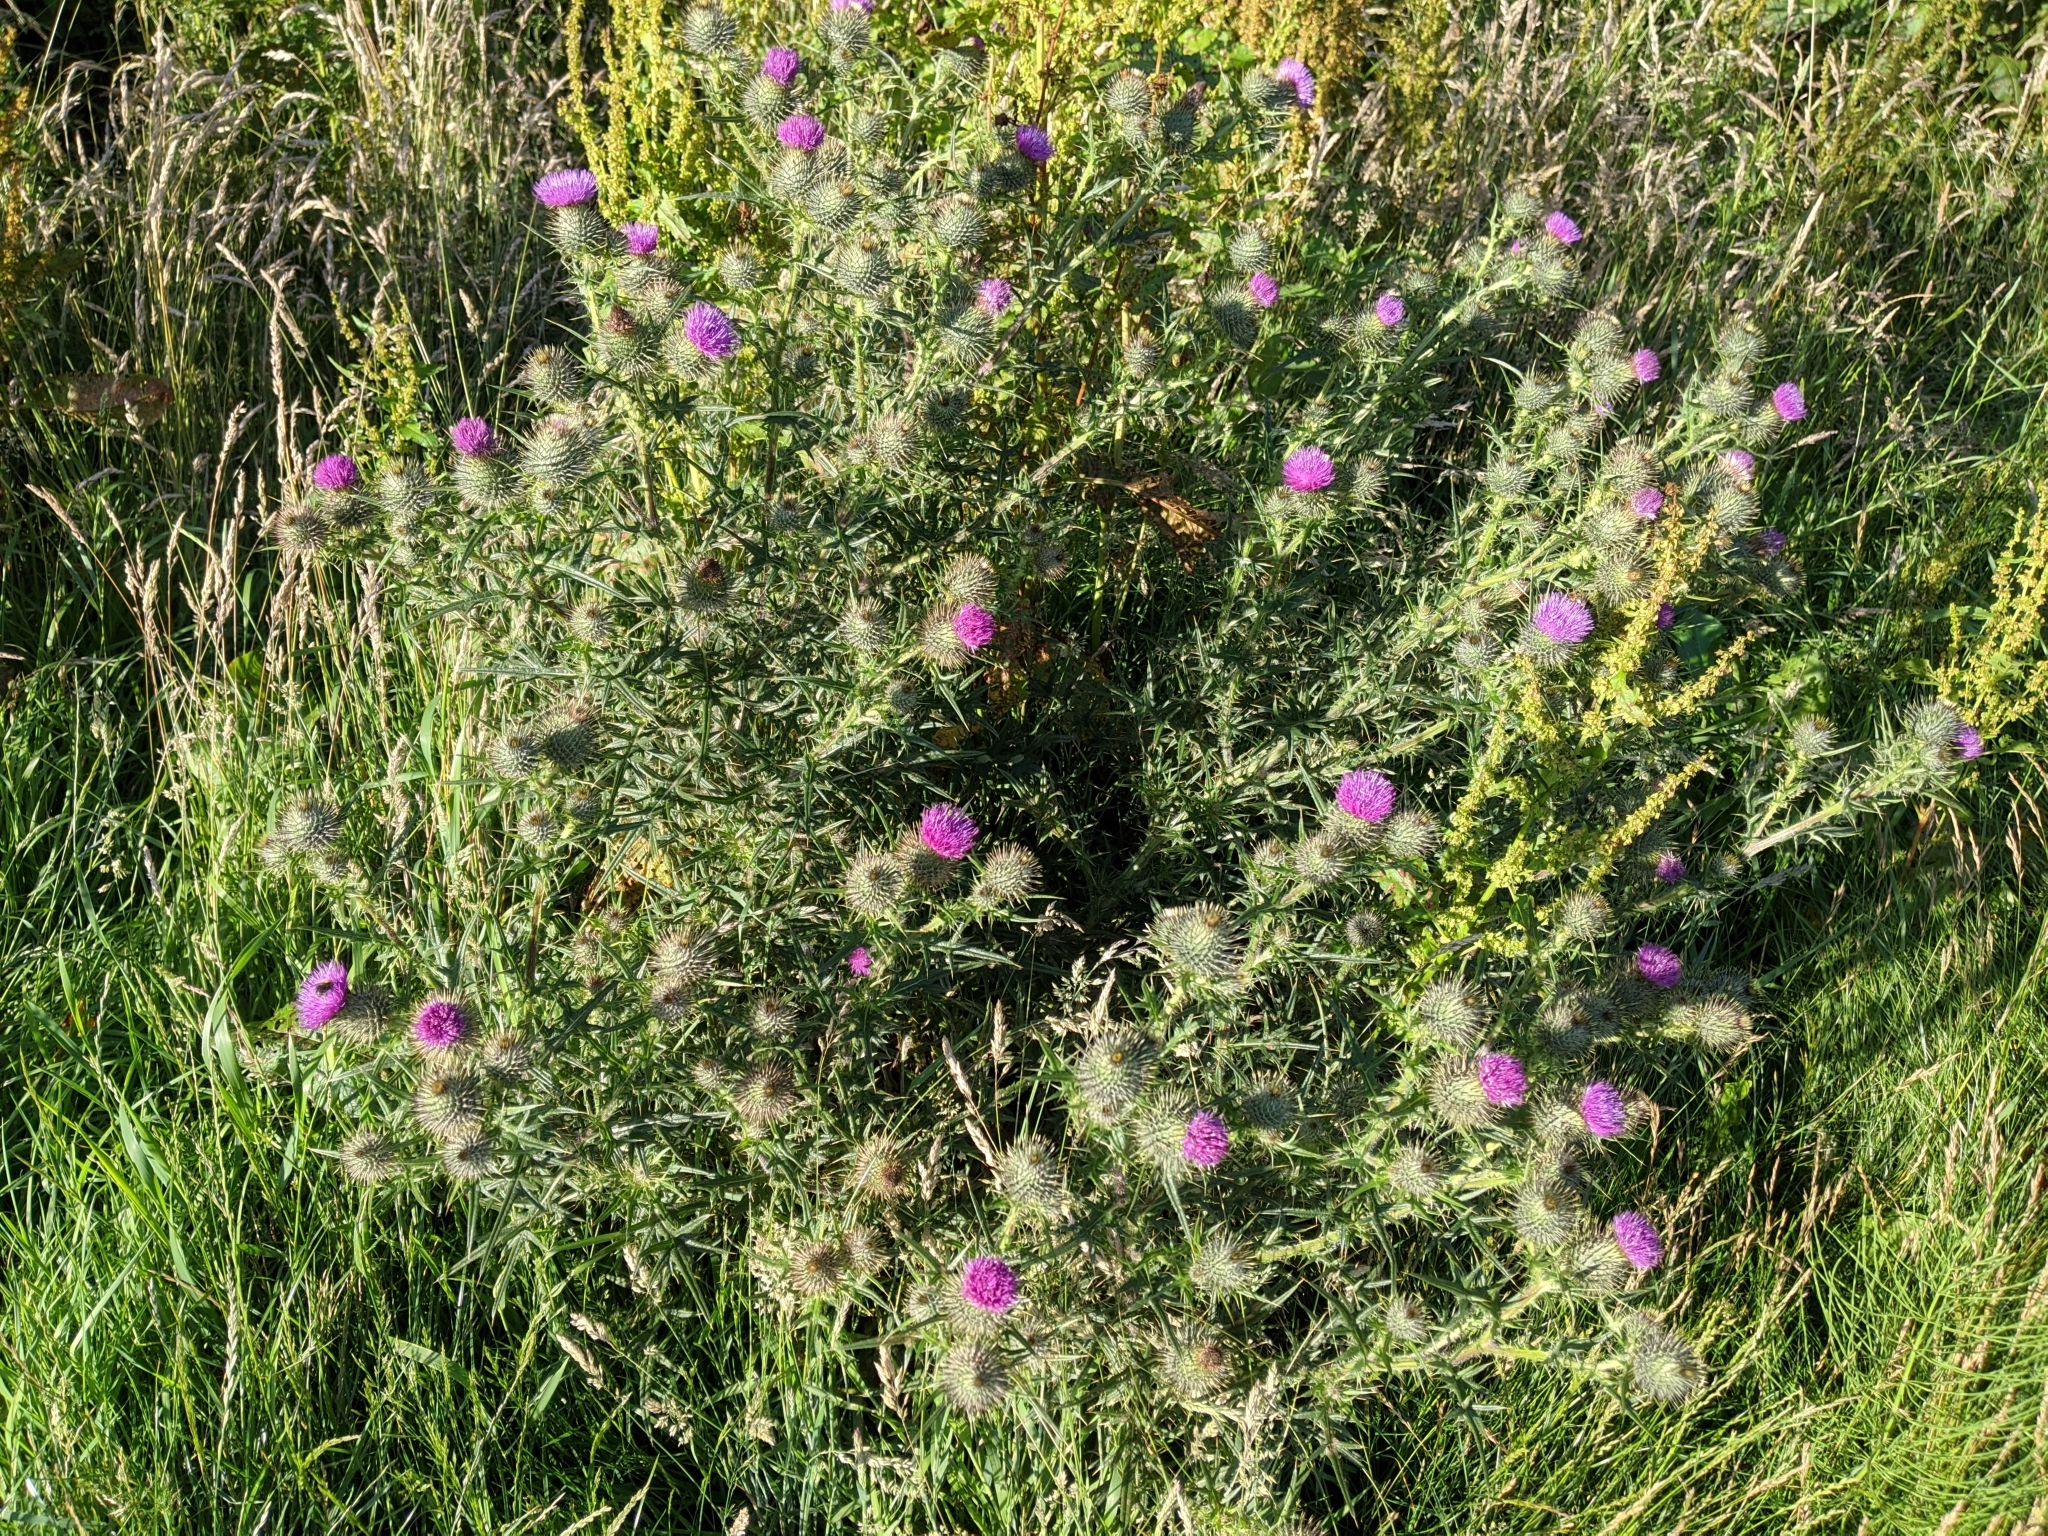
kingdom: Plantae
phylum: Tracheophyta
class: Magnoliopsida
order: Asterales
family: Asteraceae
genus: Cirsium
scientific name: Cirsium vulgare
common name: Bull thistle
